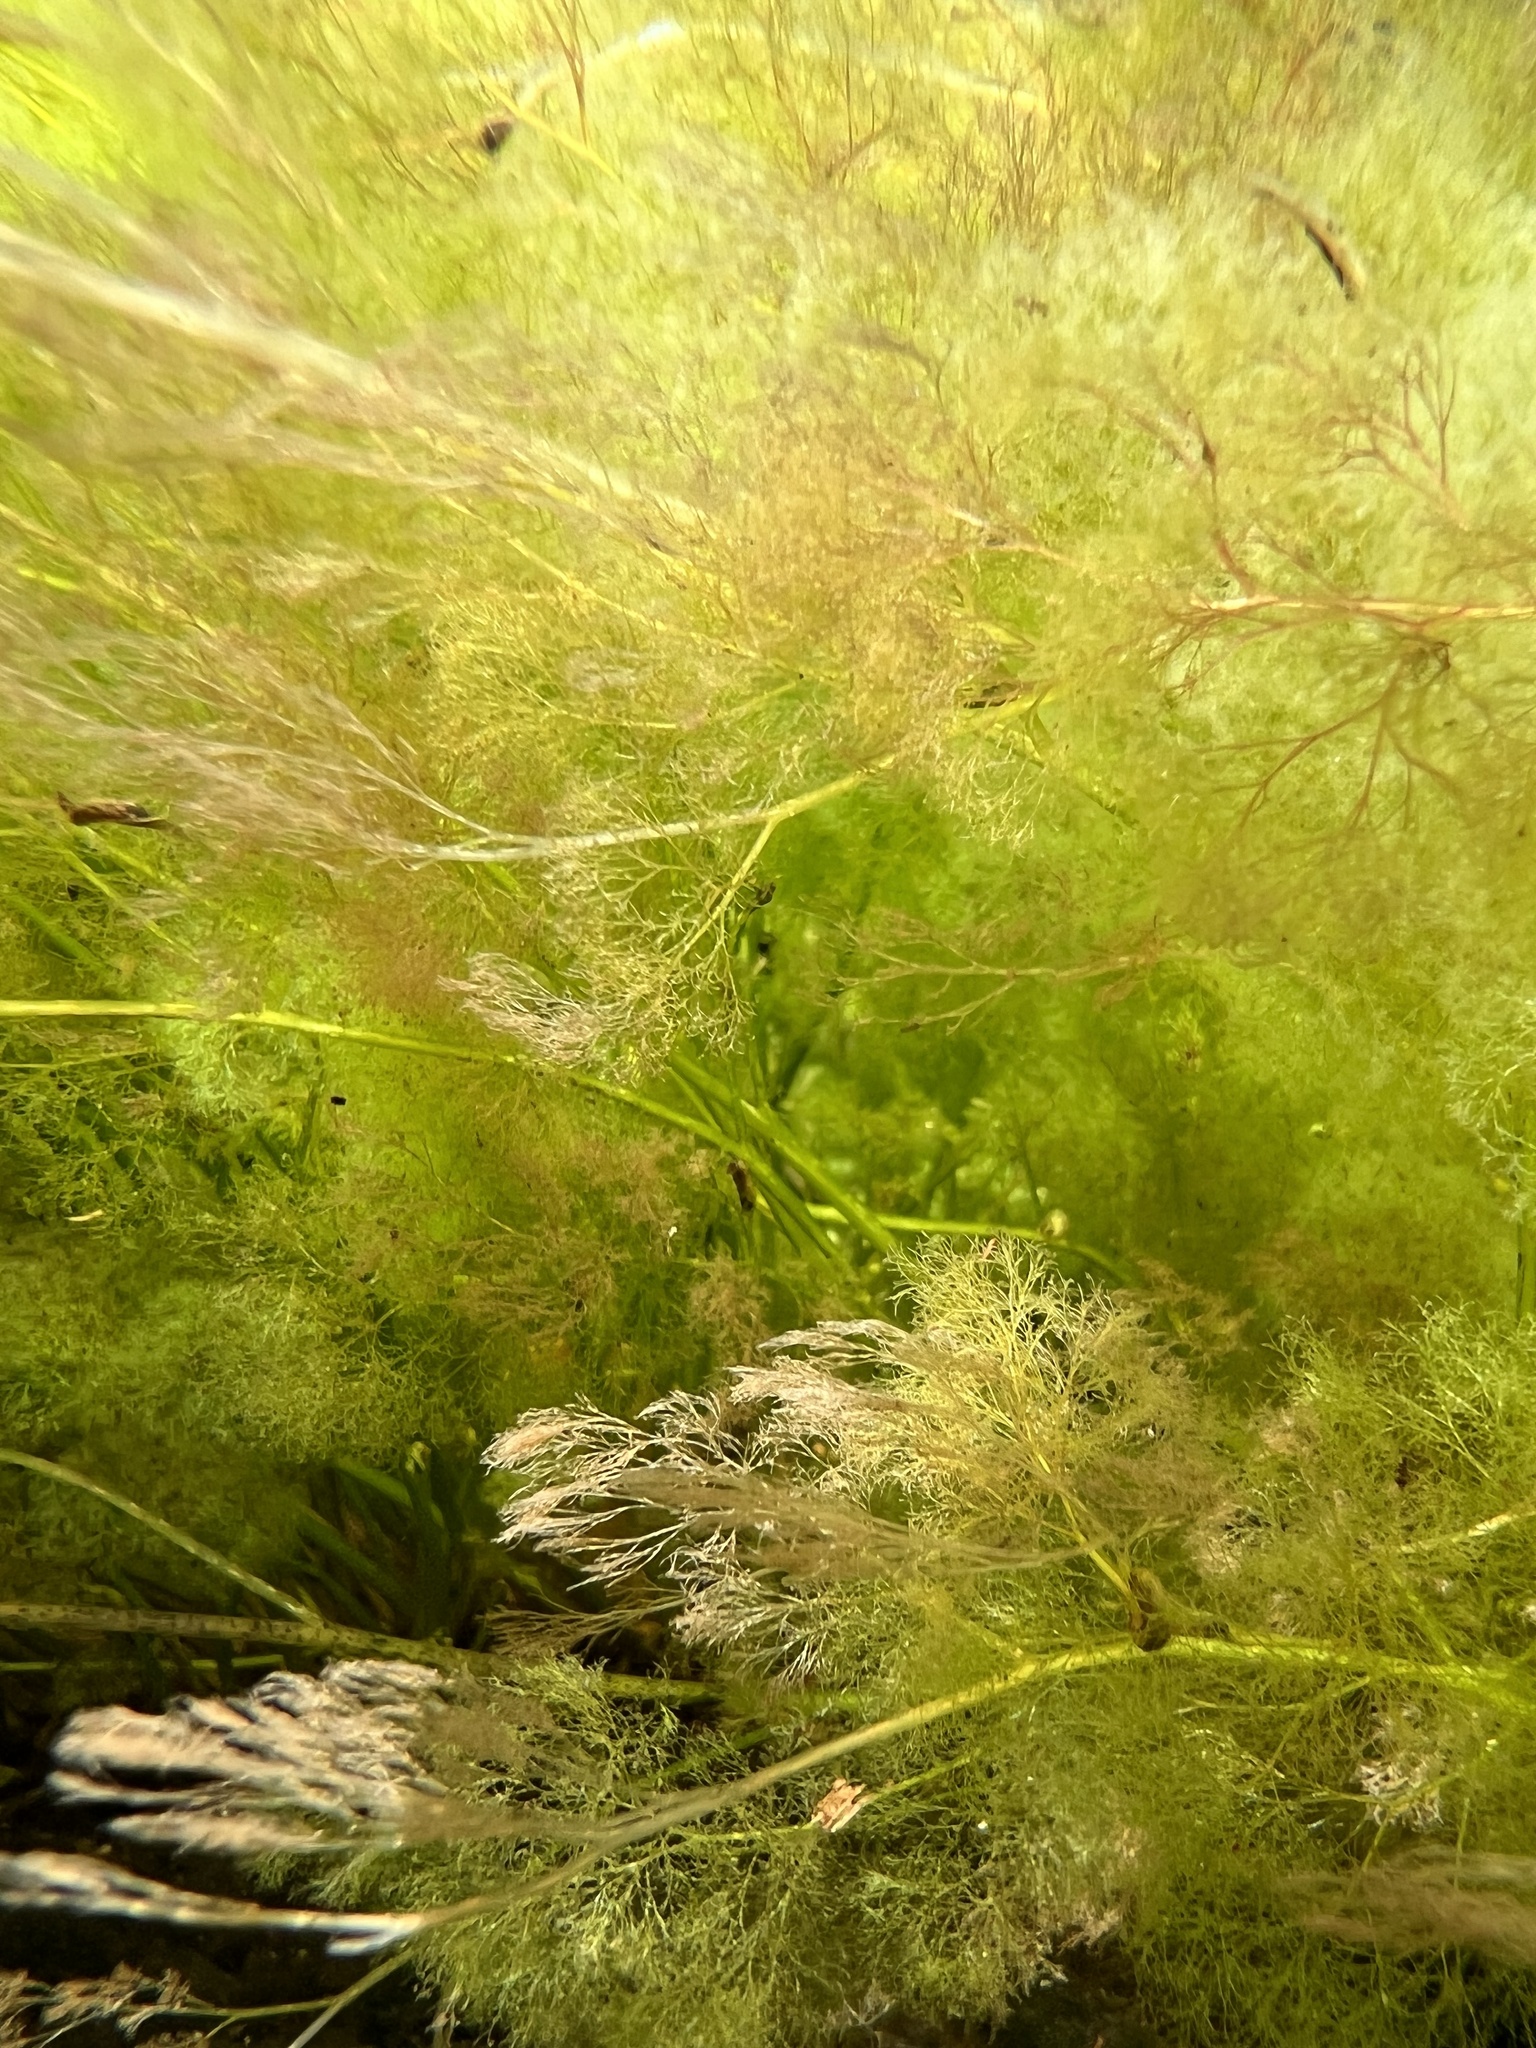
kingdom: Plantae
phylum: Tracheophyta
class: Magnoliopsida
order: Malpighiales
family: Podostemaceae
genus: Rhyncholacis
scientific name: Rhyncholacis clavigera
